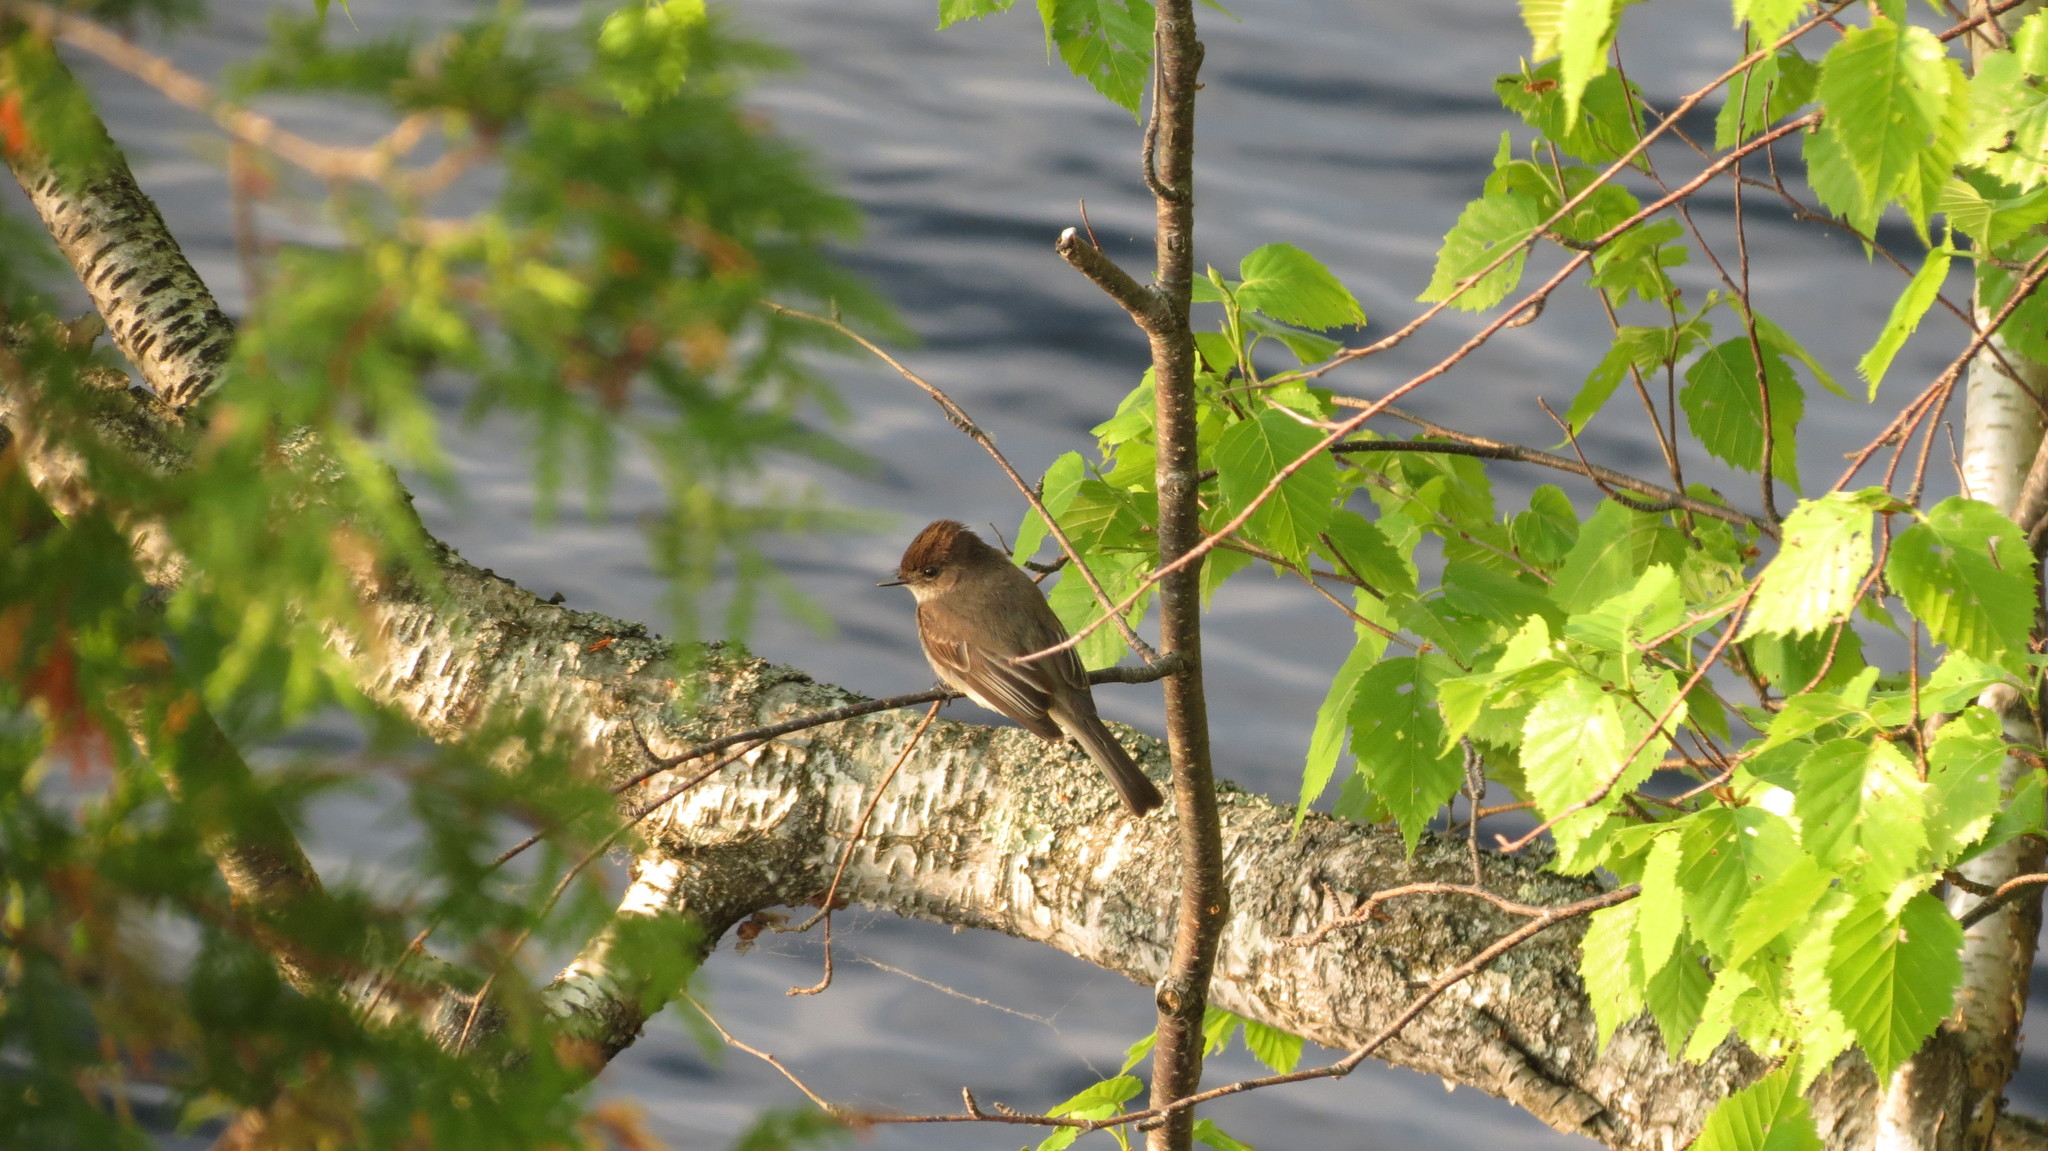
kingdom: Animalia
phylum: Chordata
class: Aves
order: Passeriformes
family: Tyrannidae
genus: Sayornis
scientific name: Sayornis phoebe
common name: Eastern phoebe
